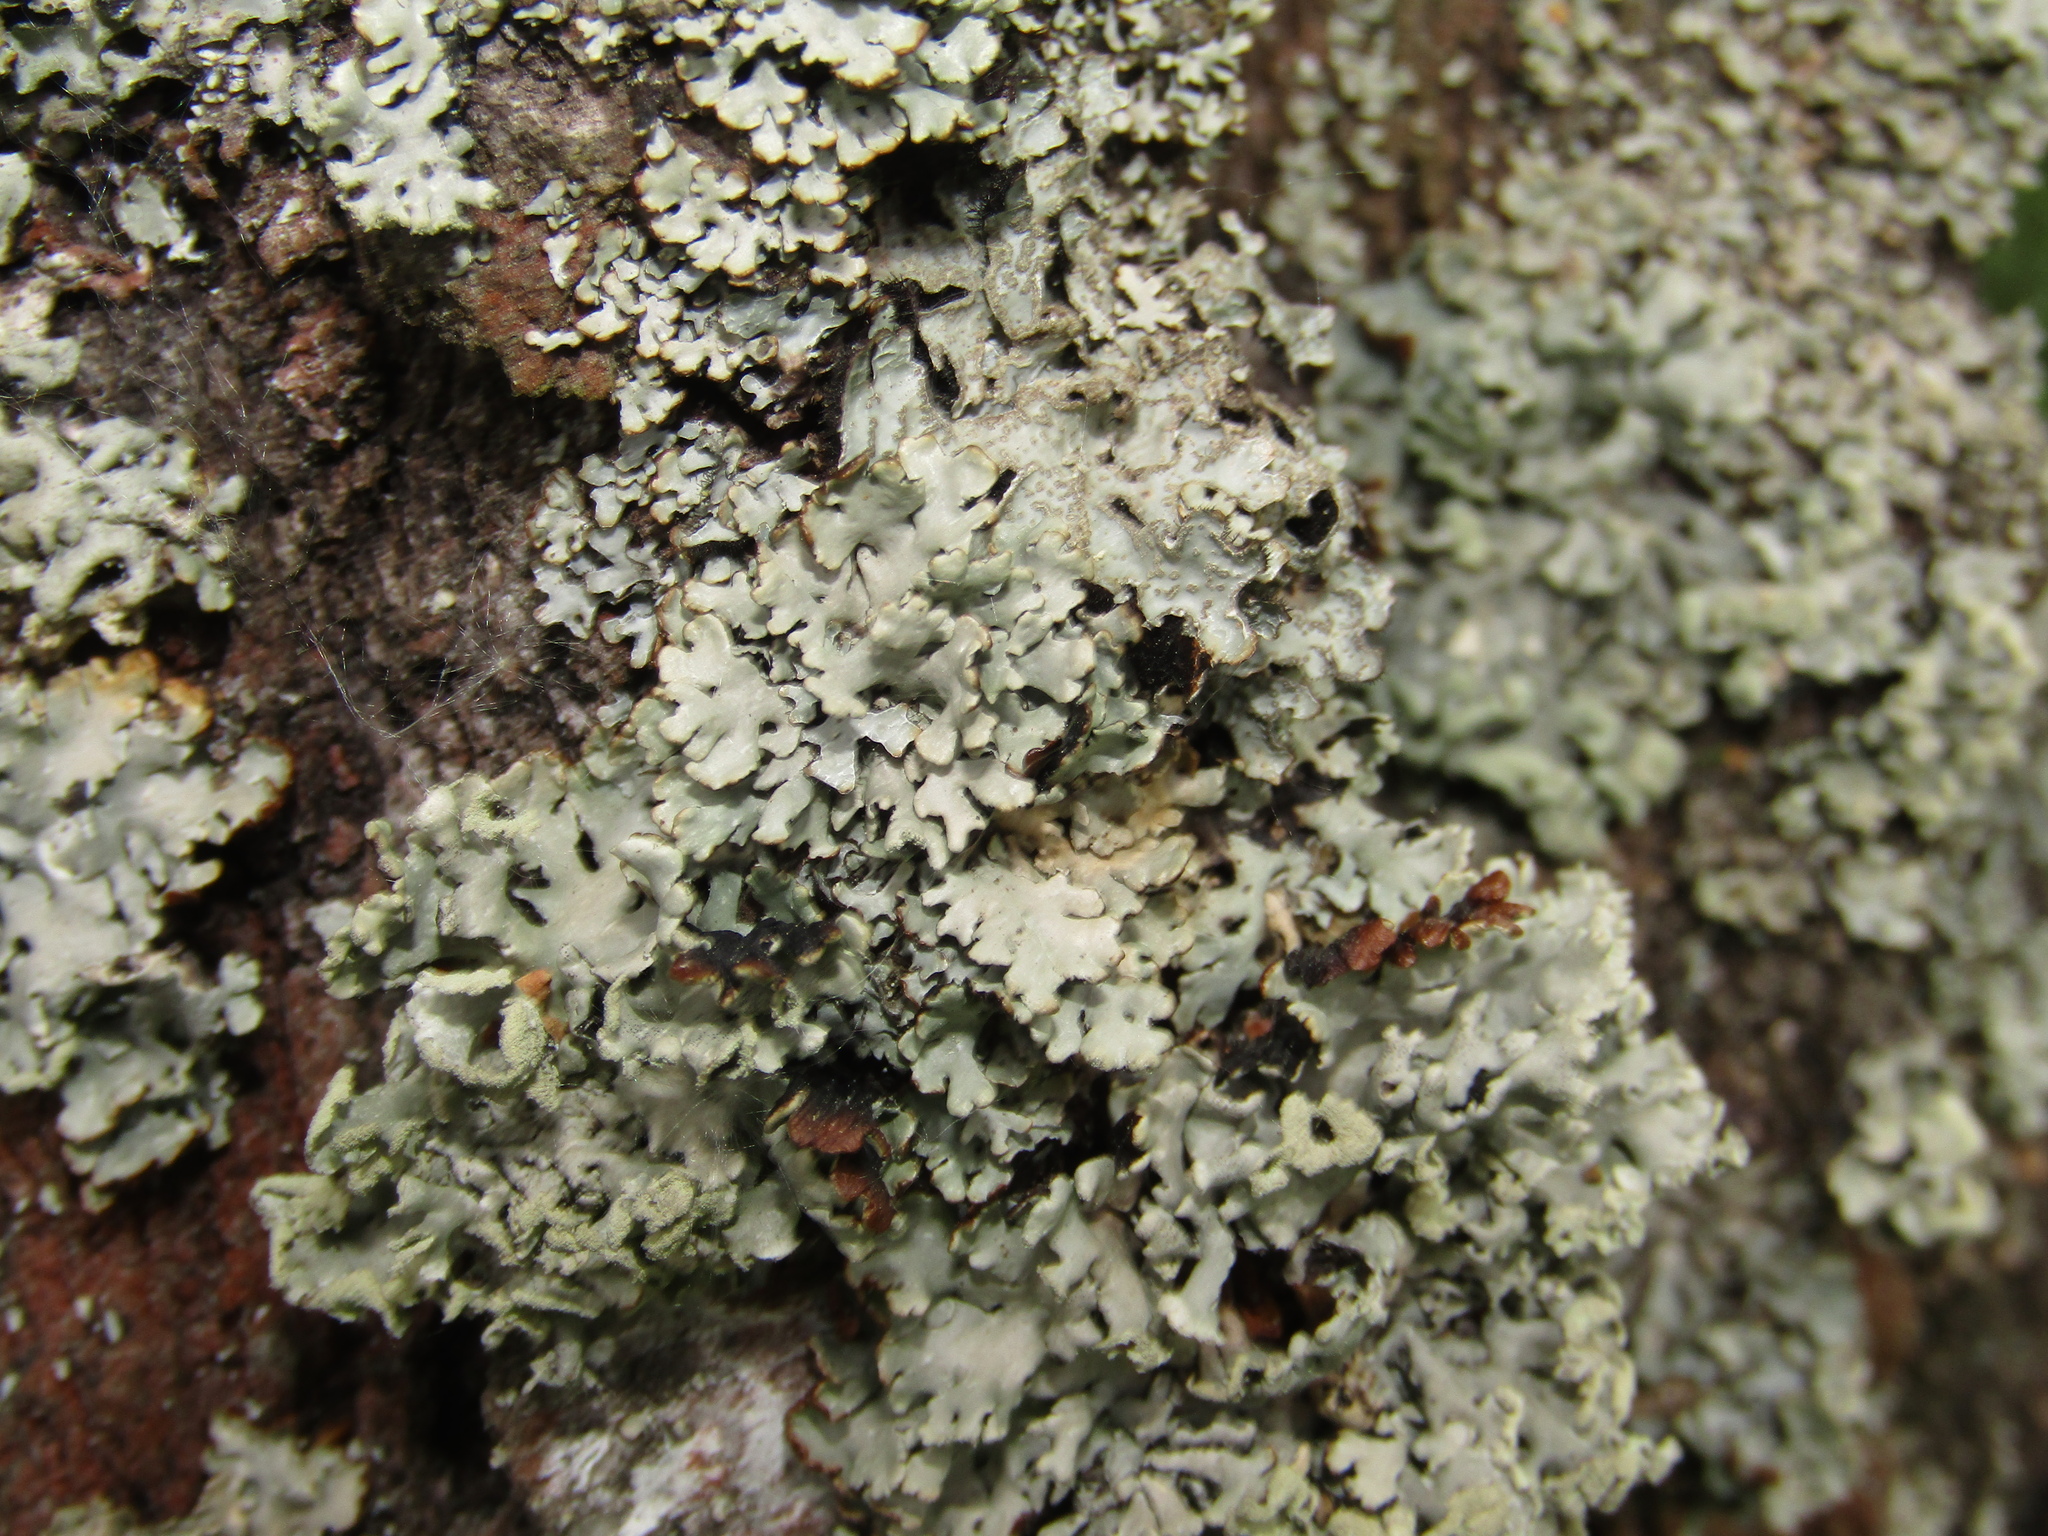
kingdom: Fungi
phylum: Ascomycota
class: Lecanoromycetes
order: Lecanorales
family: Parmeliaceae
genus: Hypogymnia
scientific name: Hypogymnia physodes
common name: Dark crottle
